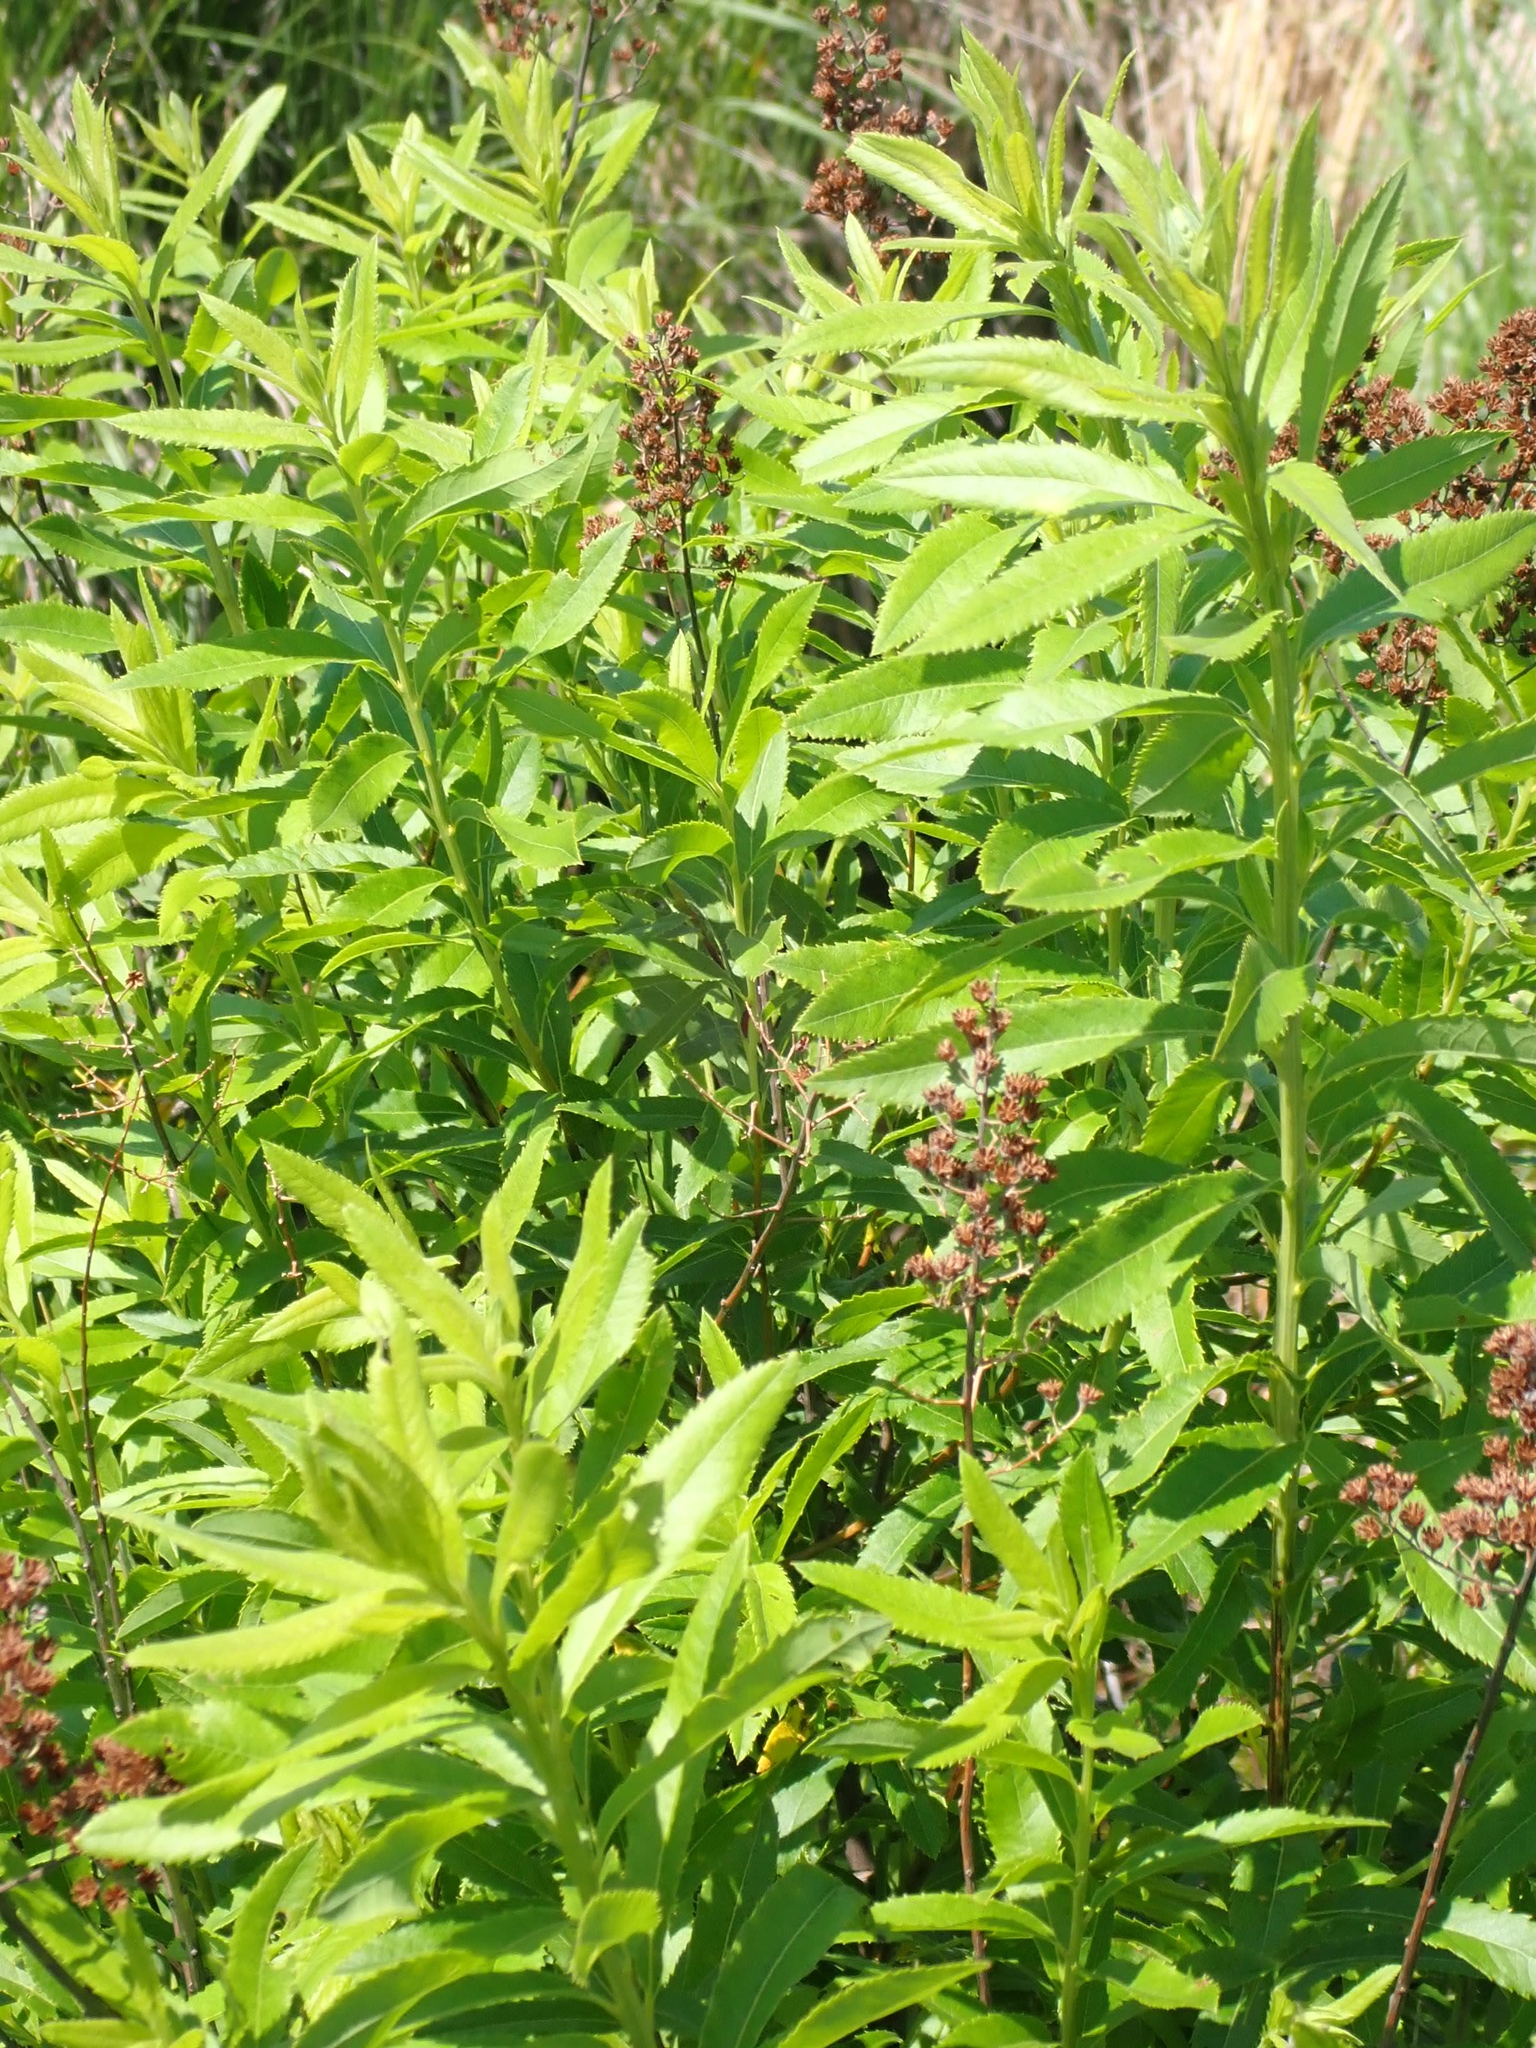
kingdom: Plantae
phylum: Tracheophyta
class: Magnoliopsida
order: Rosales
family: Rosaceae
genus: Spiraea
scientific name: Spiraea alba
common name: Pale bridewort
